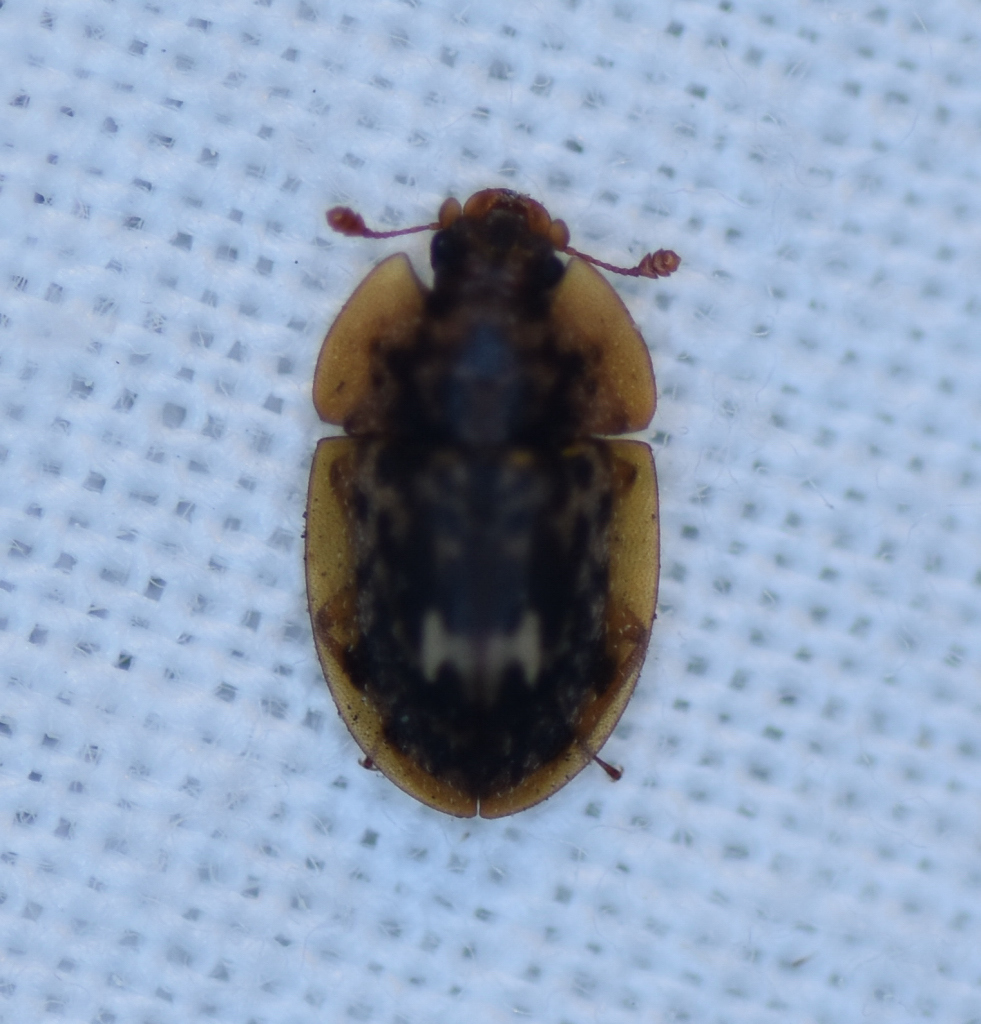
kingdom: Animalia
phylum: Arthropoda
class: Insecta
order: Coleoptera
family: Nitidulidae
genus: Lobiopa
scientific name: Lobiopa undulata
